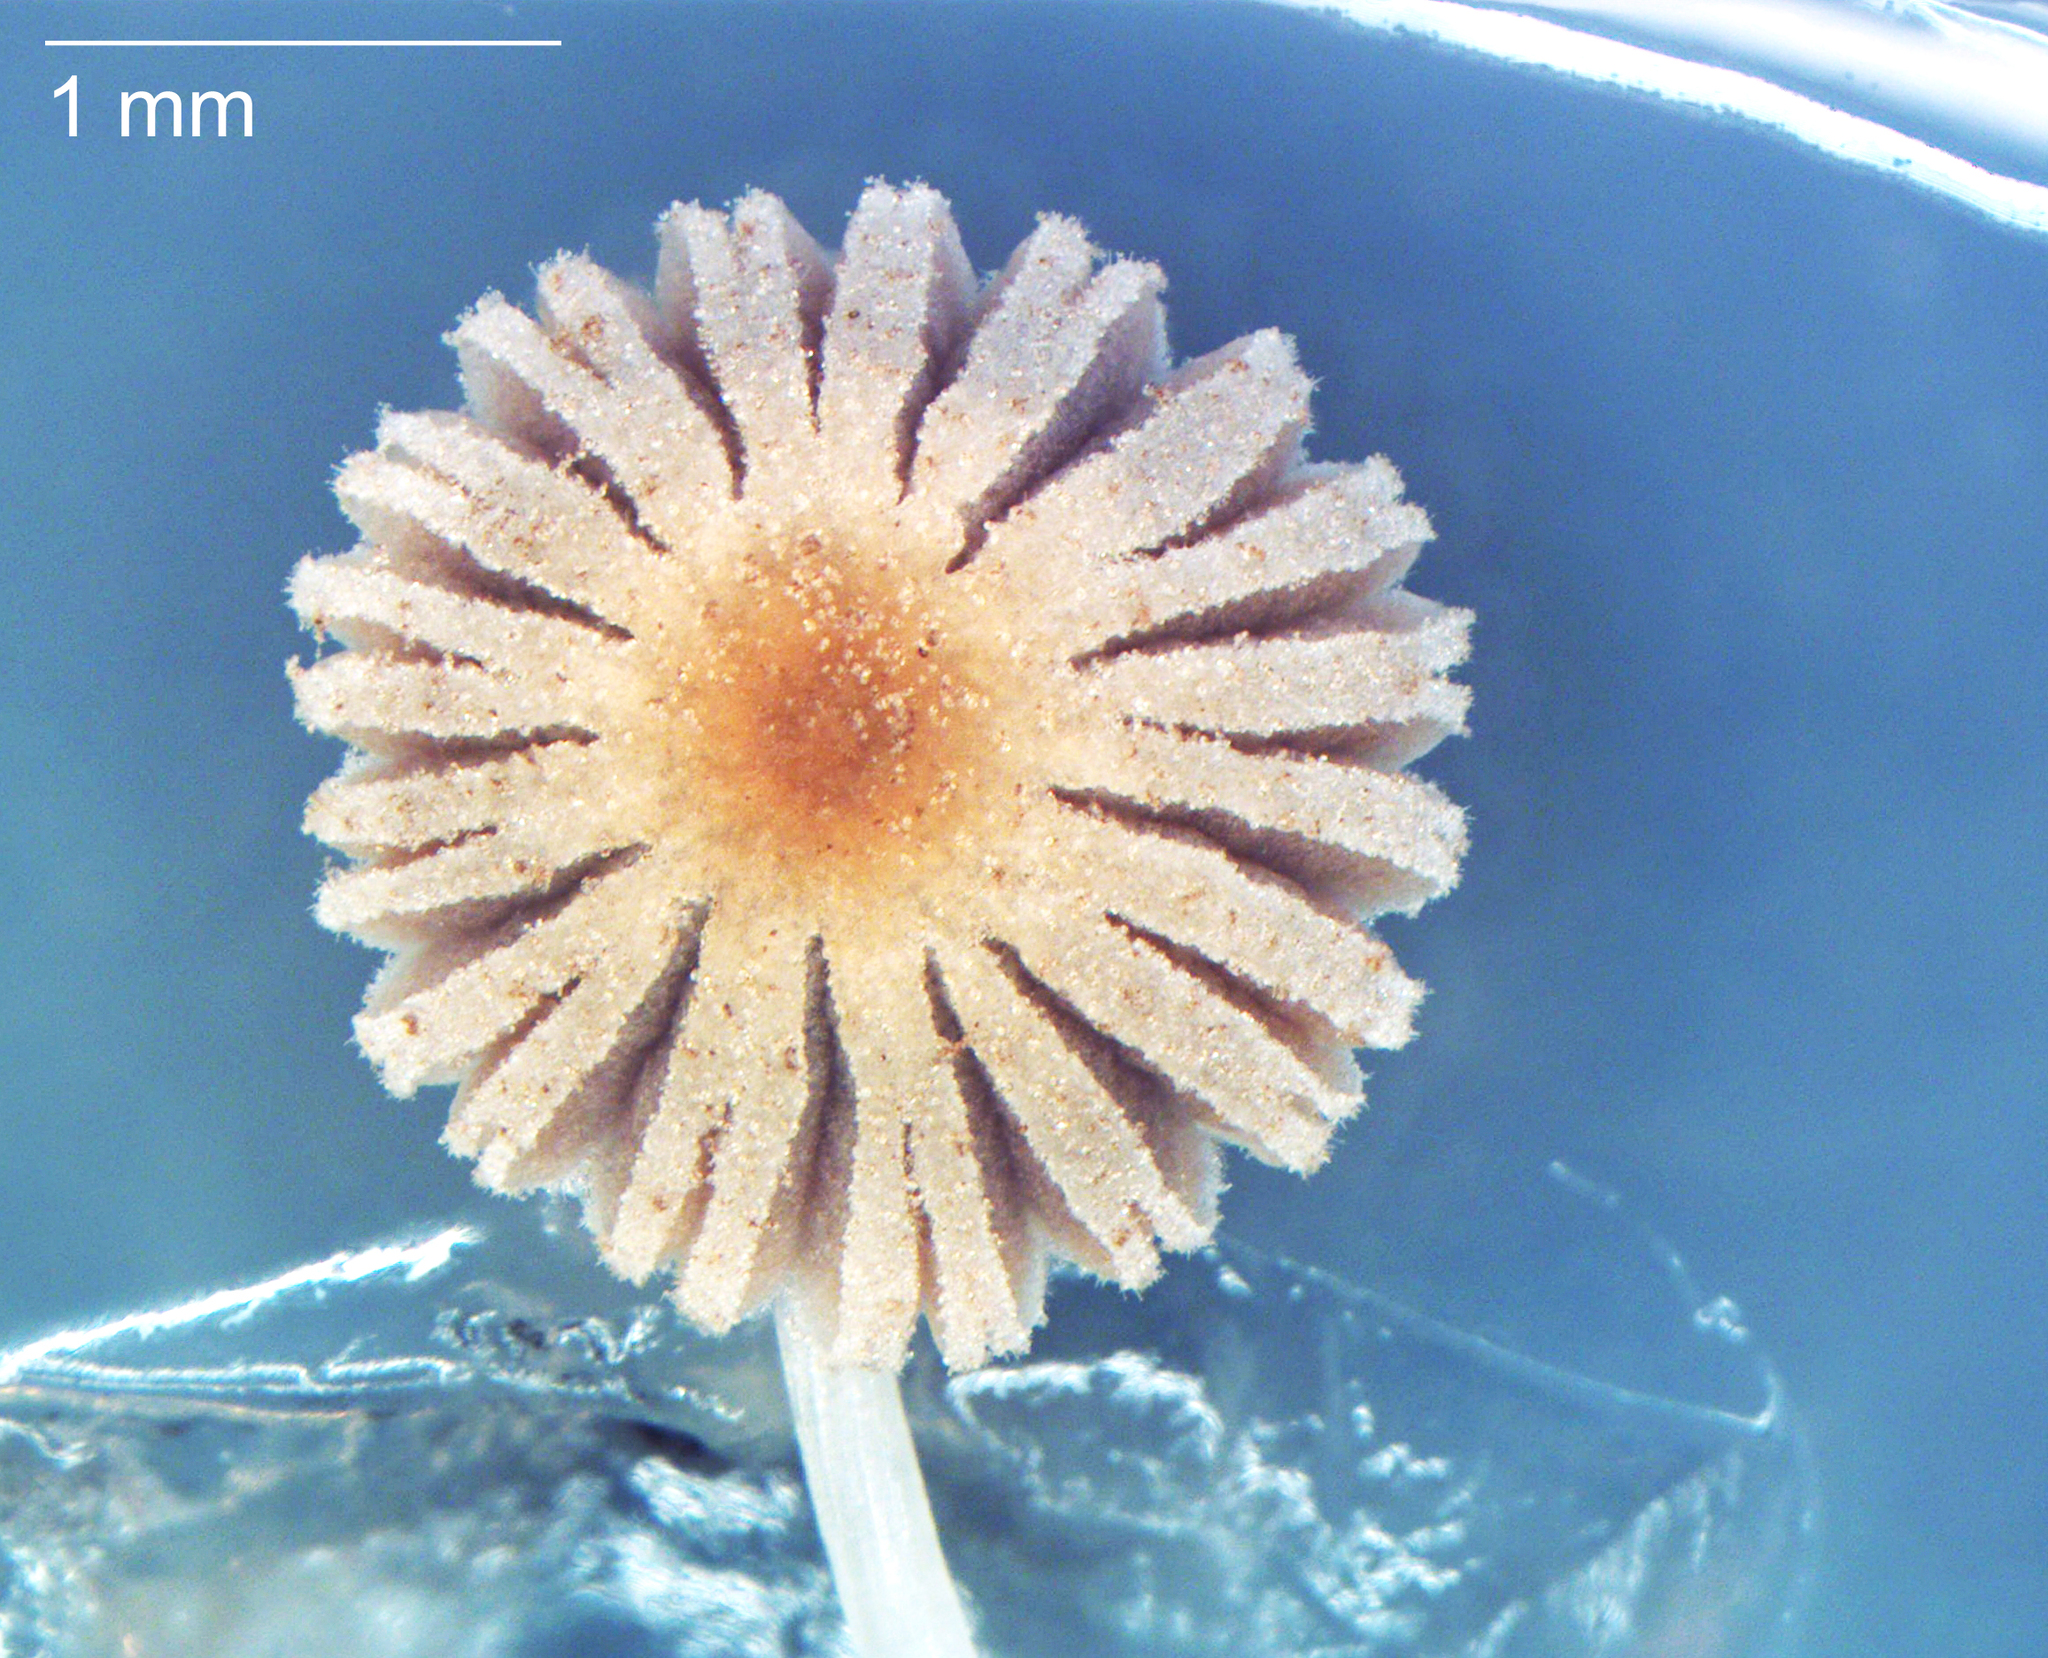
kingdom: Fungi
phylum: Basidiomycota
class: Agaricomycetes
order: Agaricales
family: Psathyrellaceae
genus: Coprinellus
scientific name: Coprinellus heptemerus
